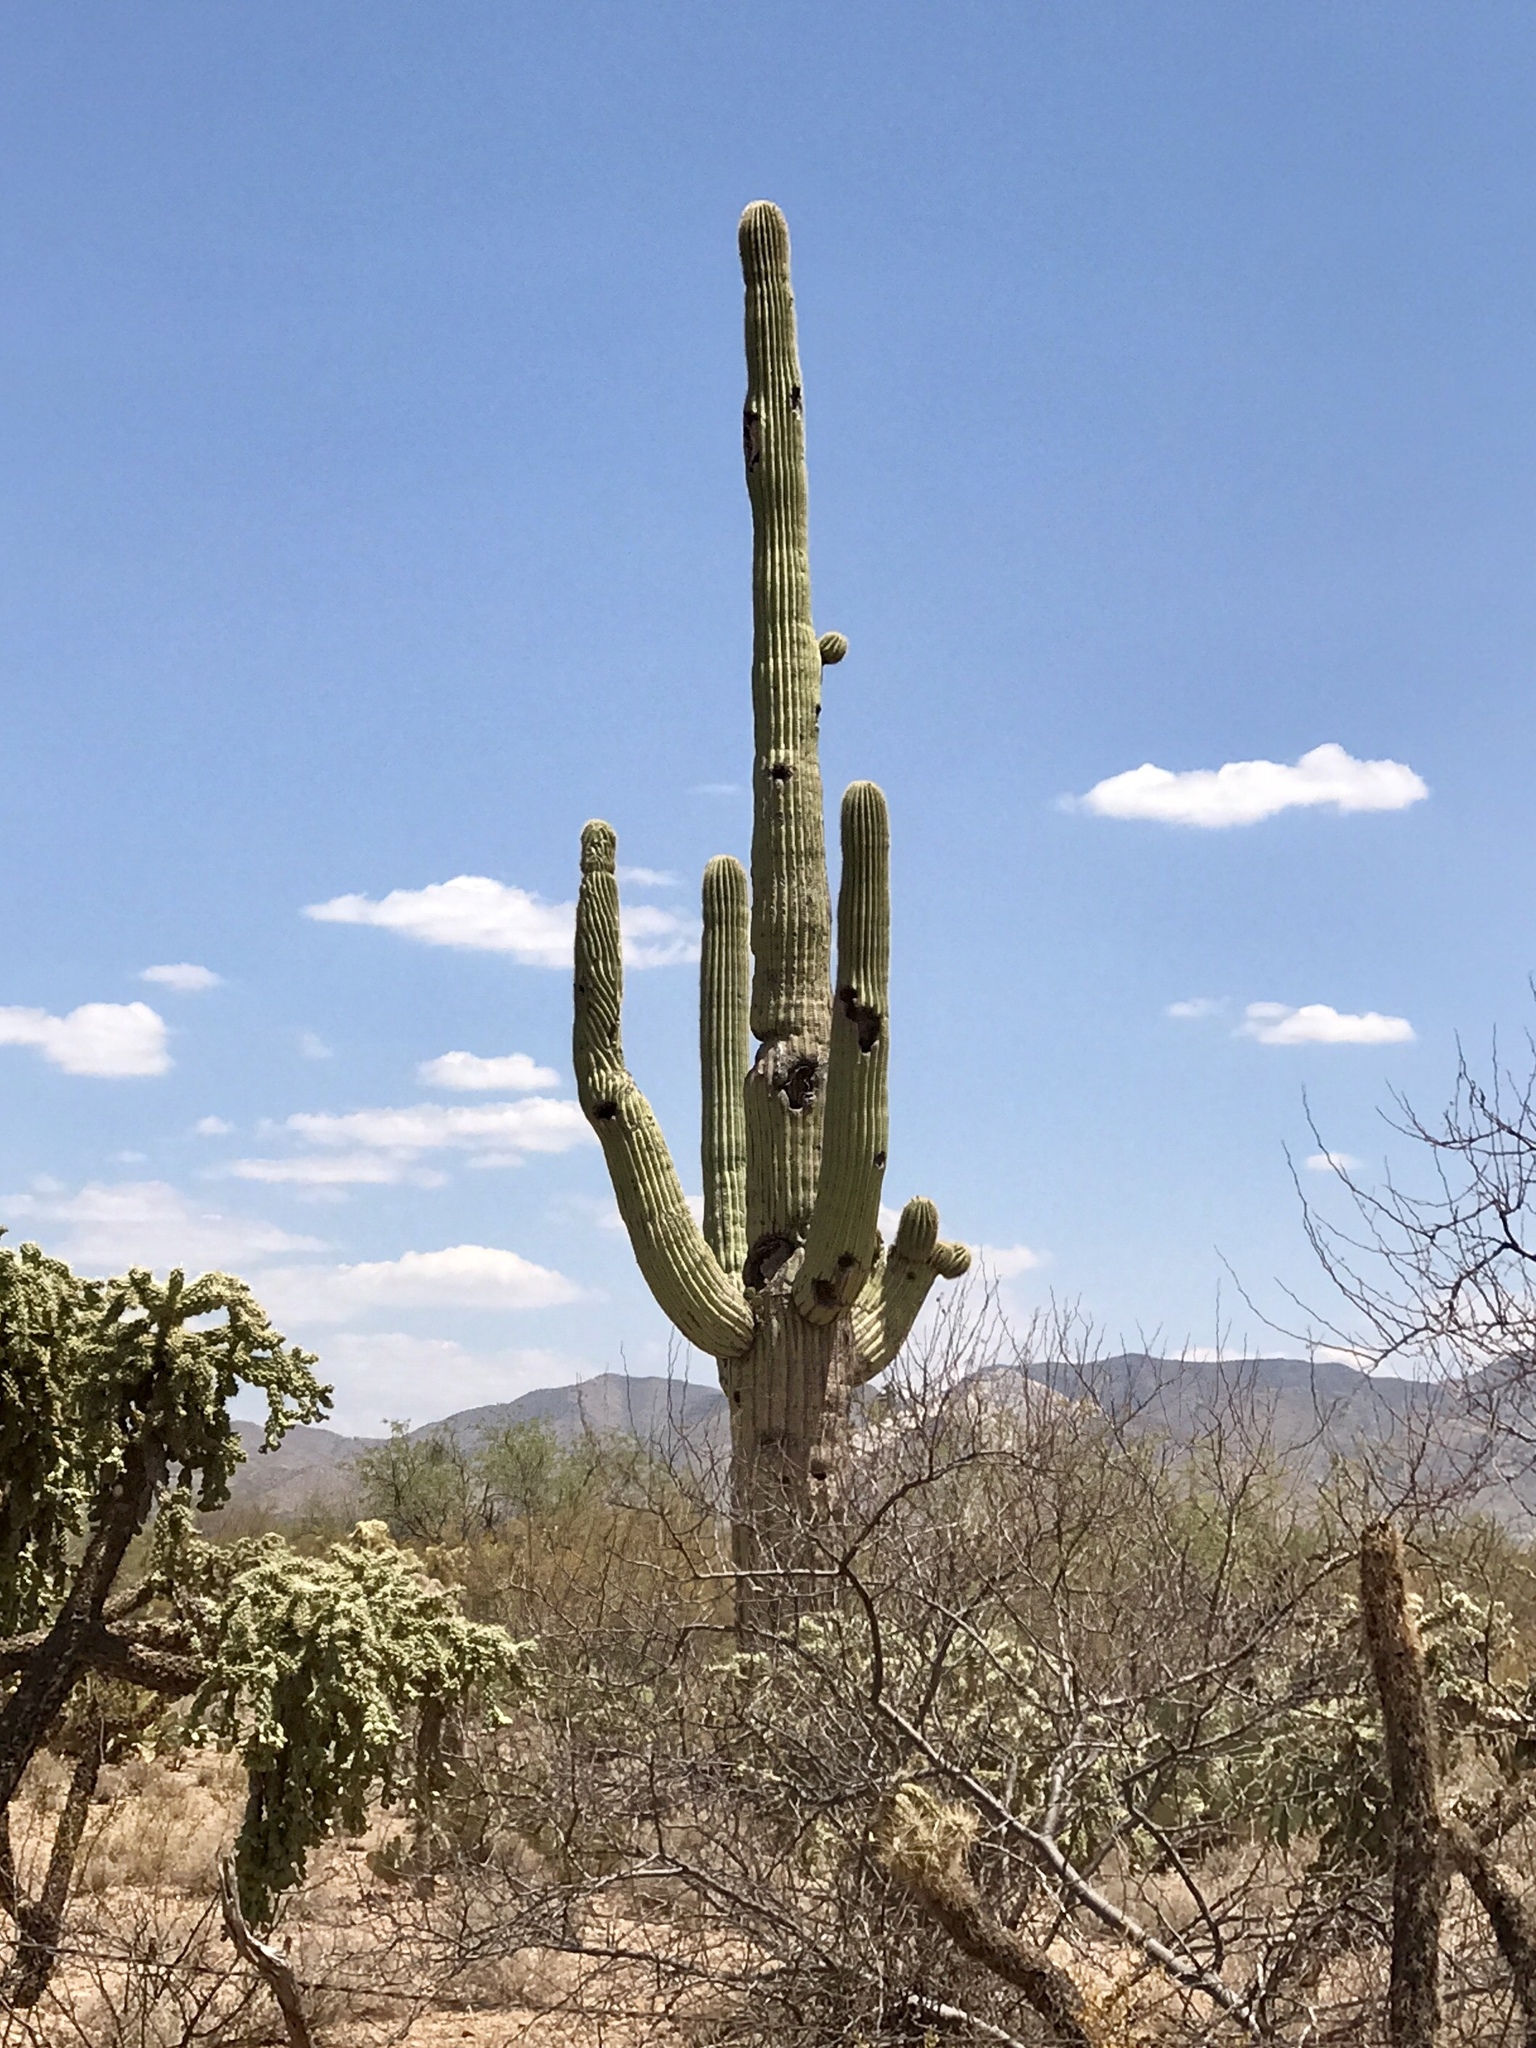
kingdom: Plantae
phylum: Tracheophyta
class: Magnoliopsida
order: Caryophyllales
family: Cactaceae
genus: Carnegiea
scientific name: Carnegiea gigantea
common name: Saguaro
